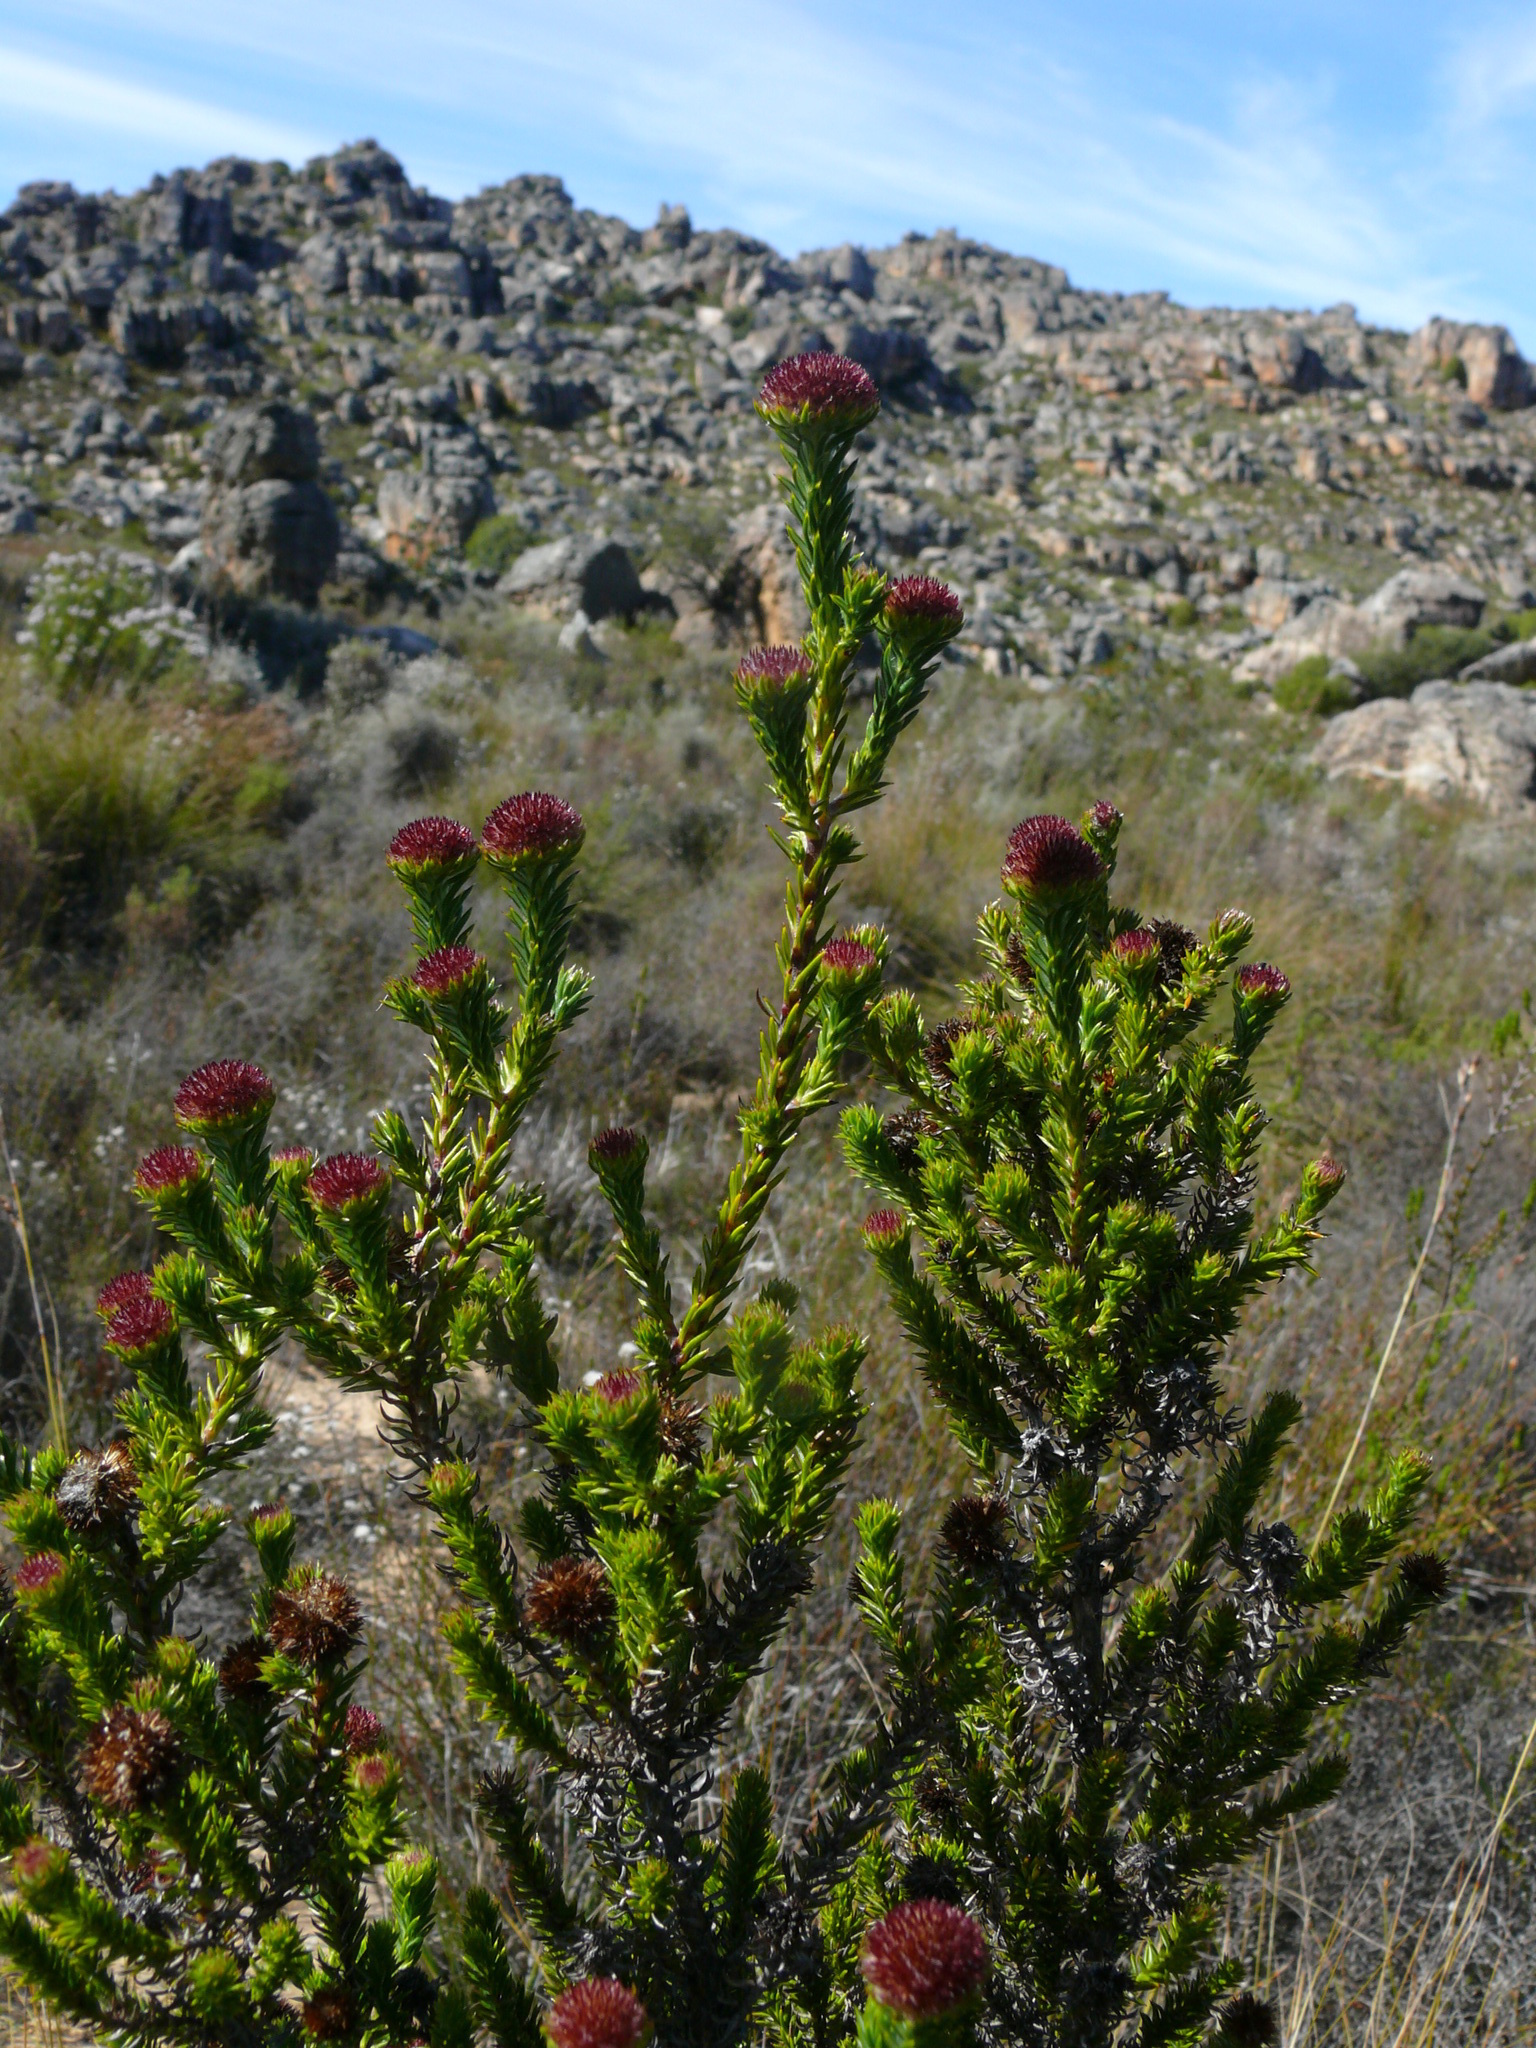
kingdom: Plantae
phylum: Tracheophyta
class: Magnoliopsida
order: Asterales
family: Asteraceae
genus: Stoebe
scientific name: Stoebe aethiopica
